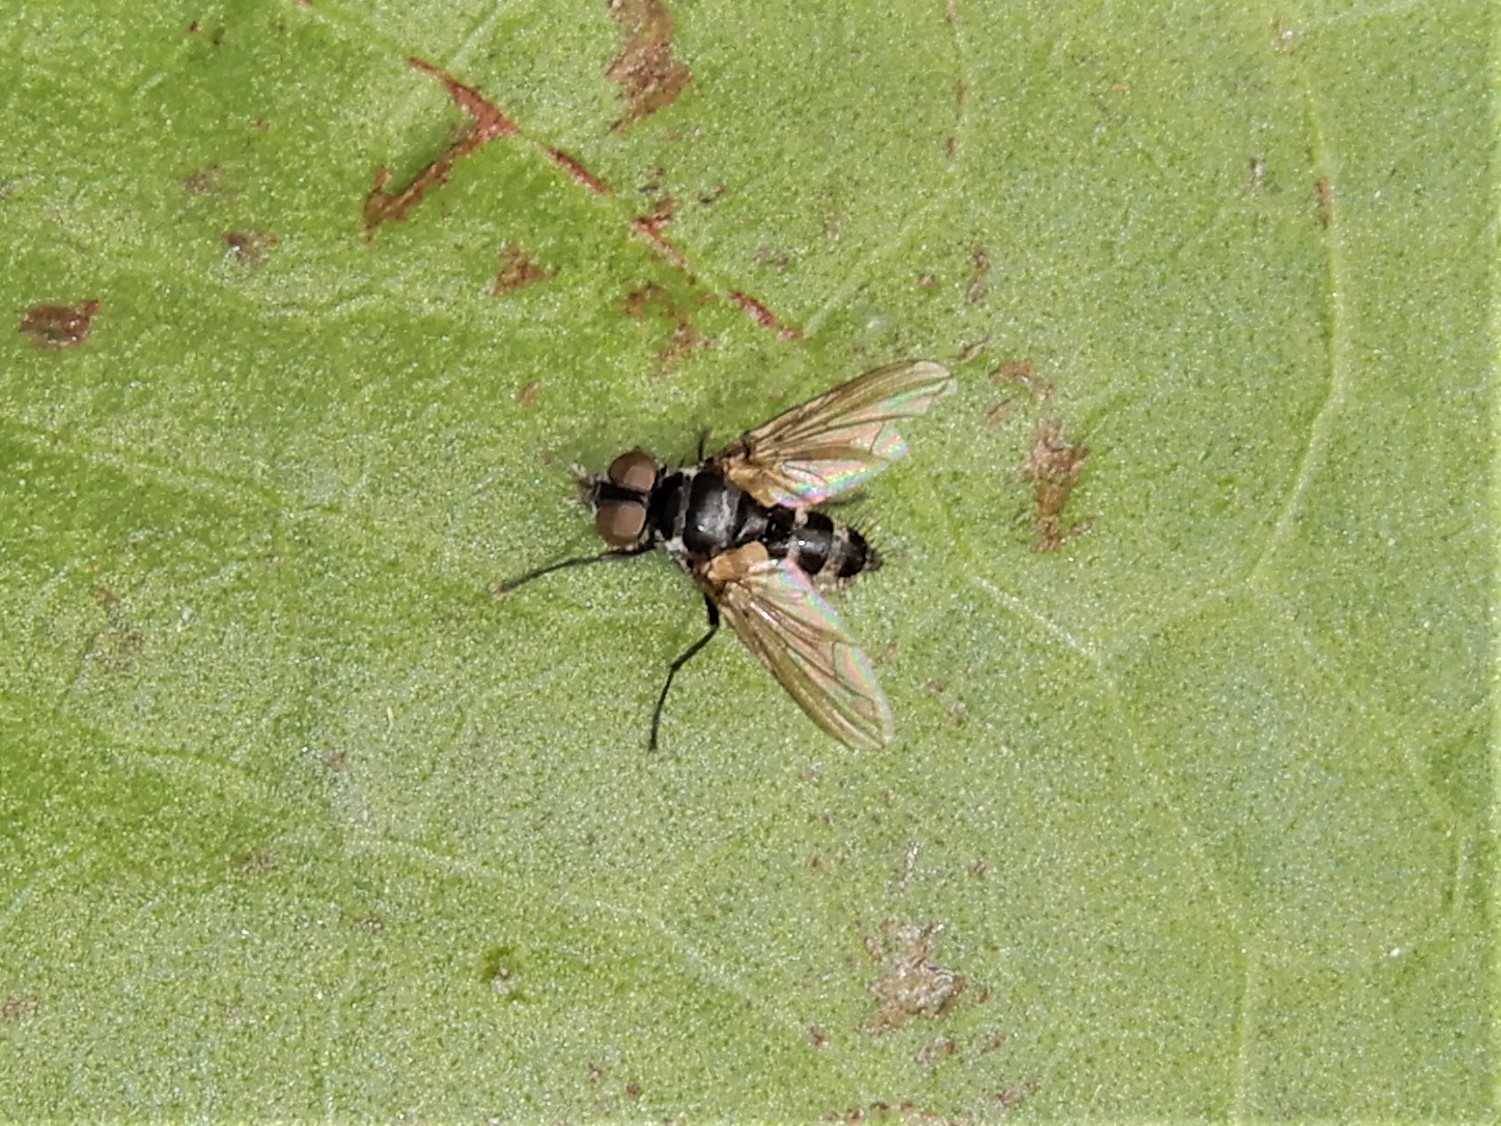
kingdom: Animalia
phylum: Arthropoda
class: Insecta
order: Diptera
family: Tachinidae
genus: Trigonospila
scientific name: Trigonospila brevifacies
